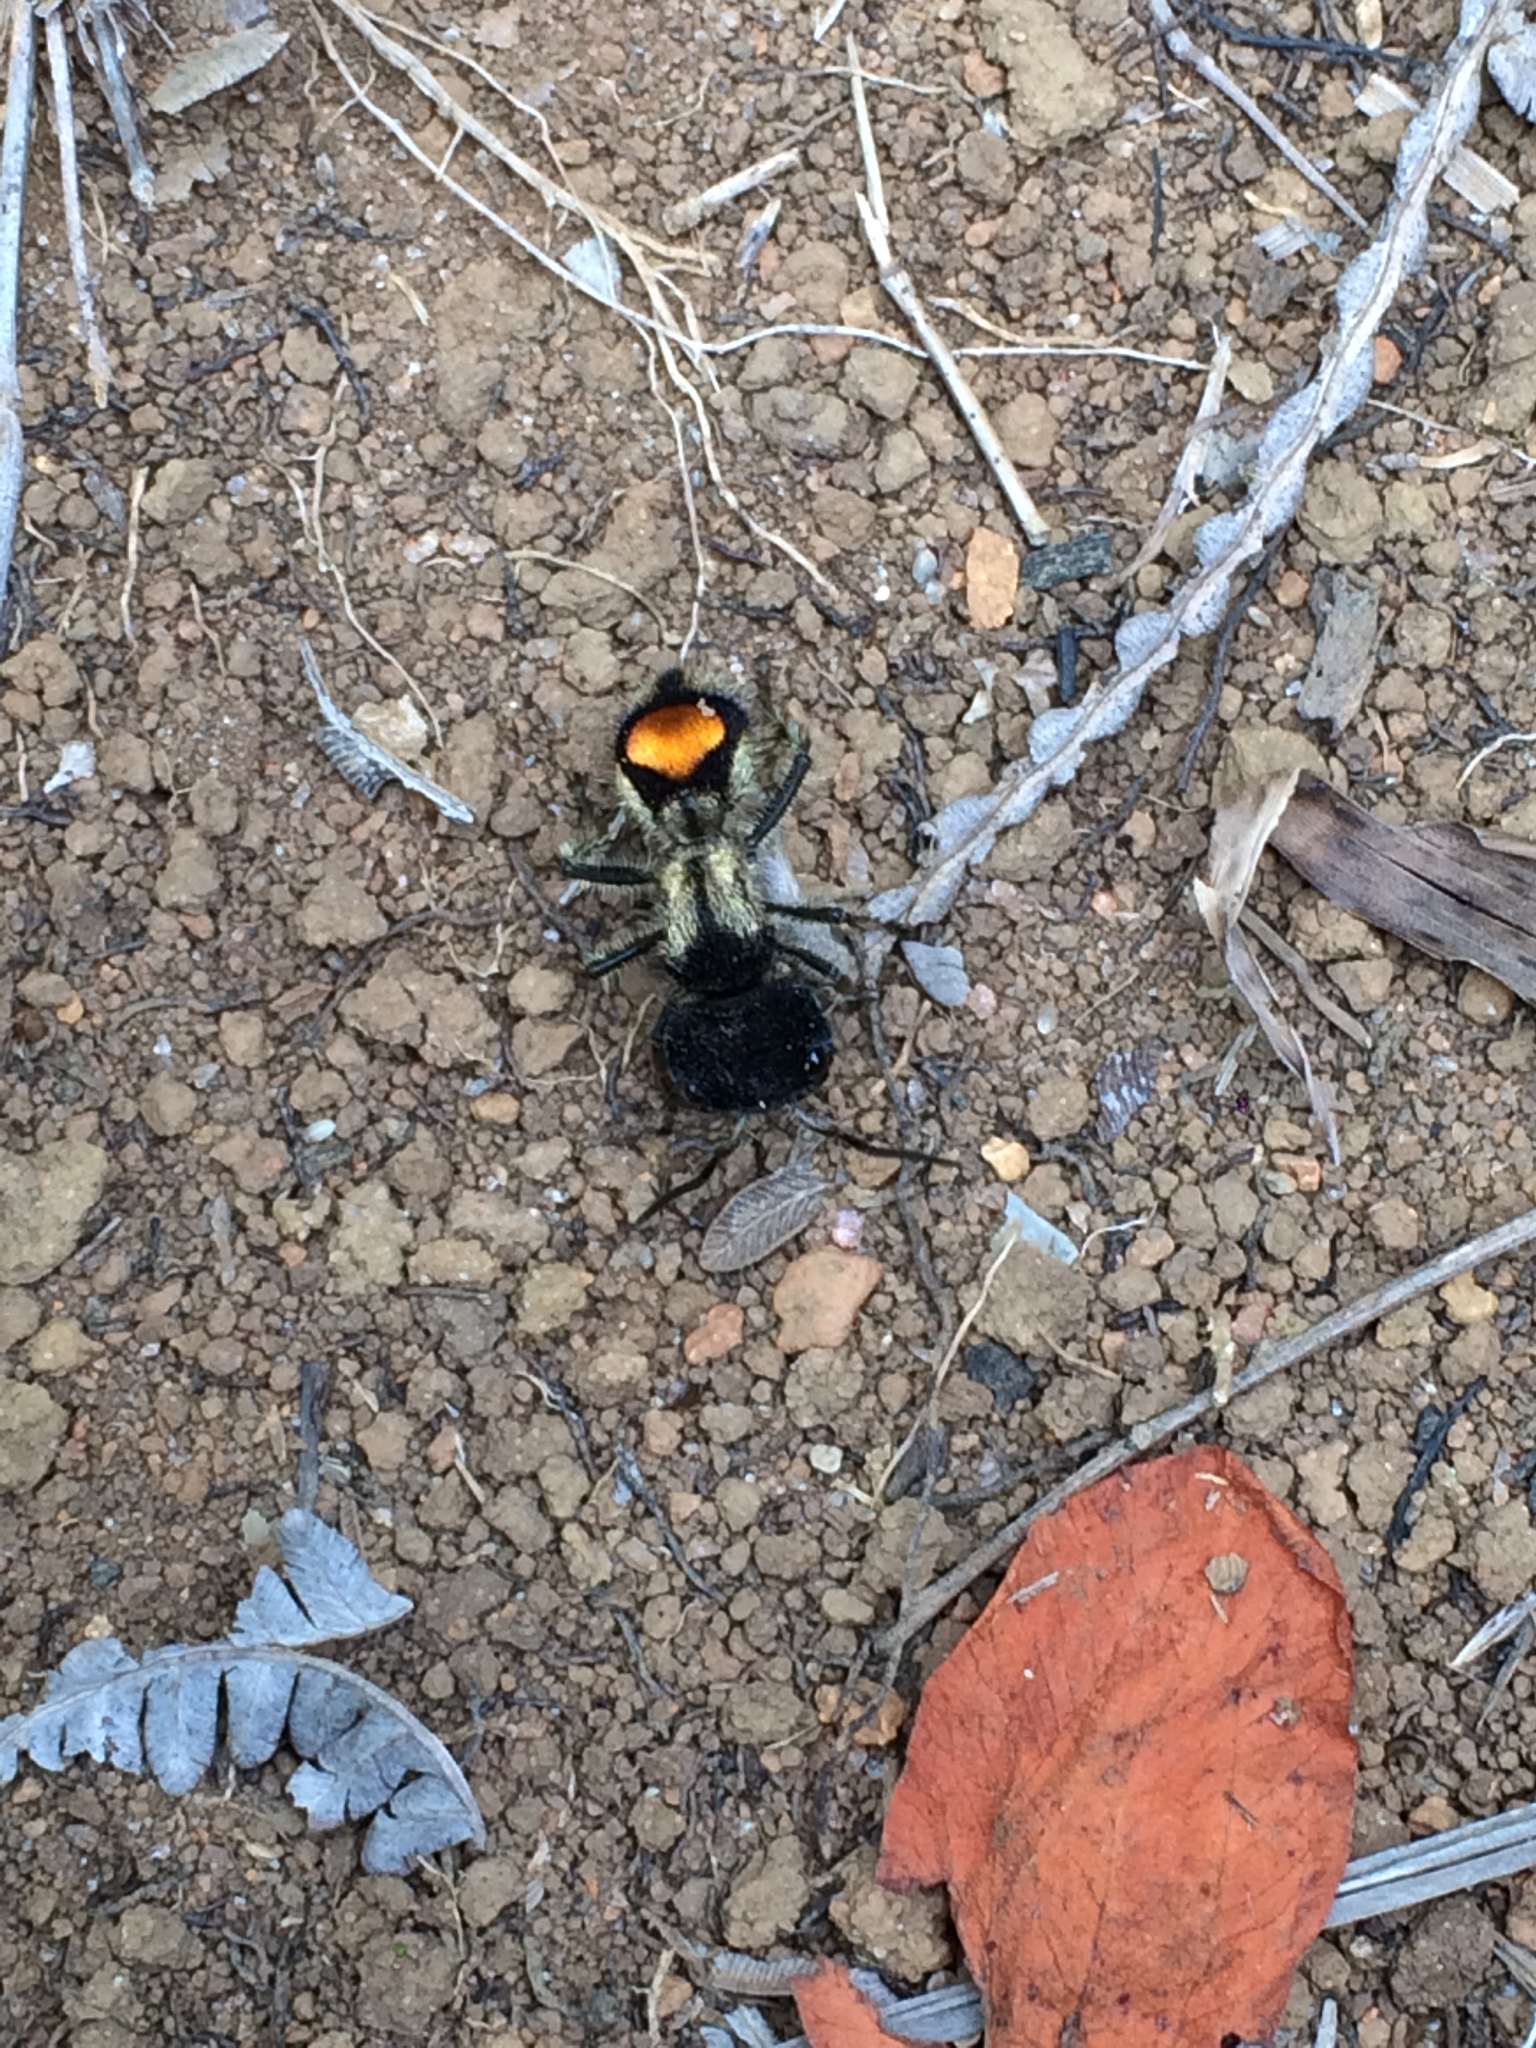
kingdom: Animalia
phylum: Arthropoda
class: Insecta
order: Hymenoptera
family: Mutillidae
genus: Hoplocrates
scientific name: Hoplocrates
